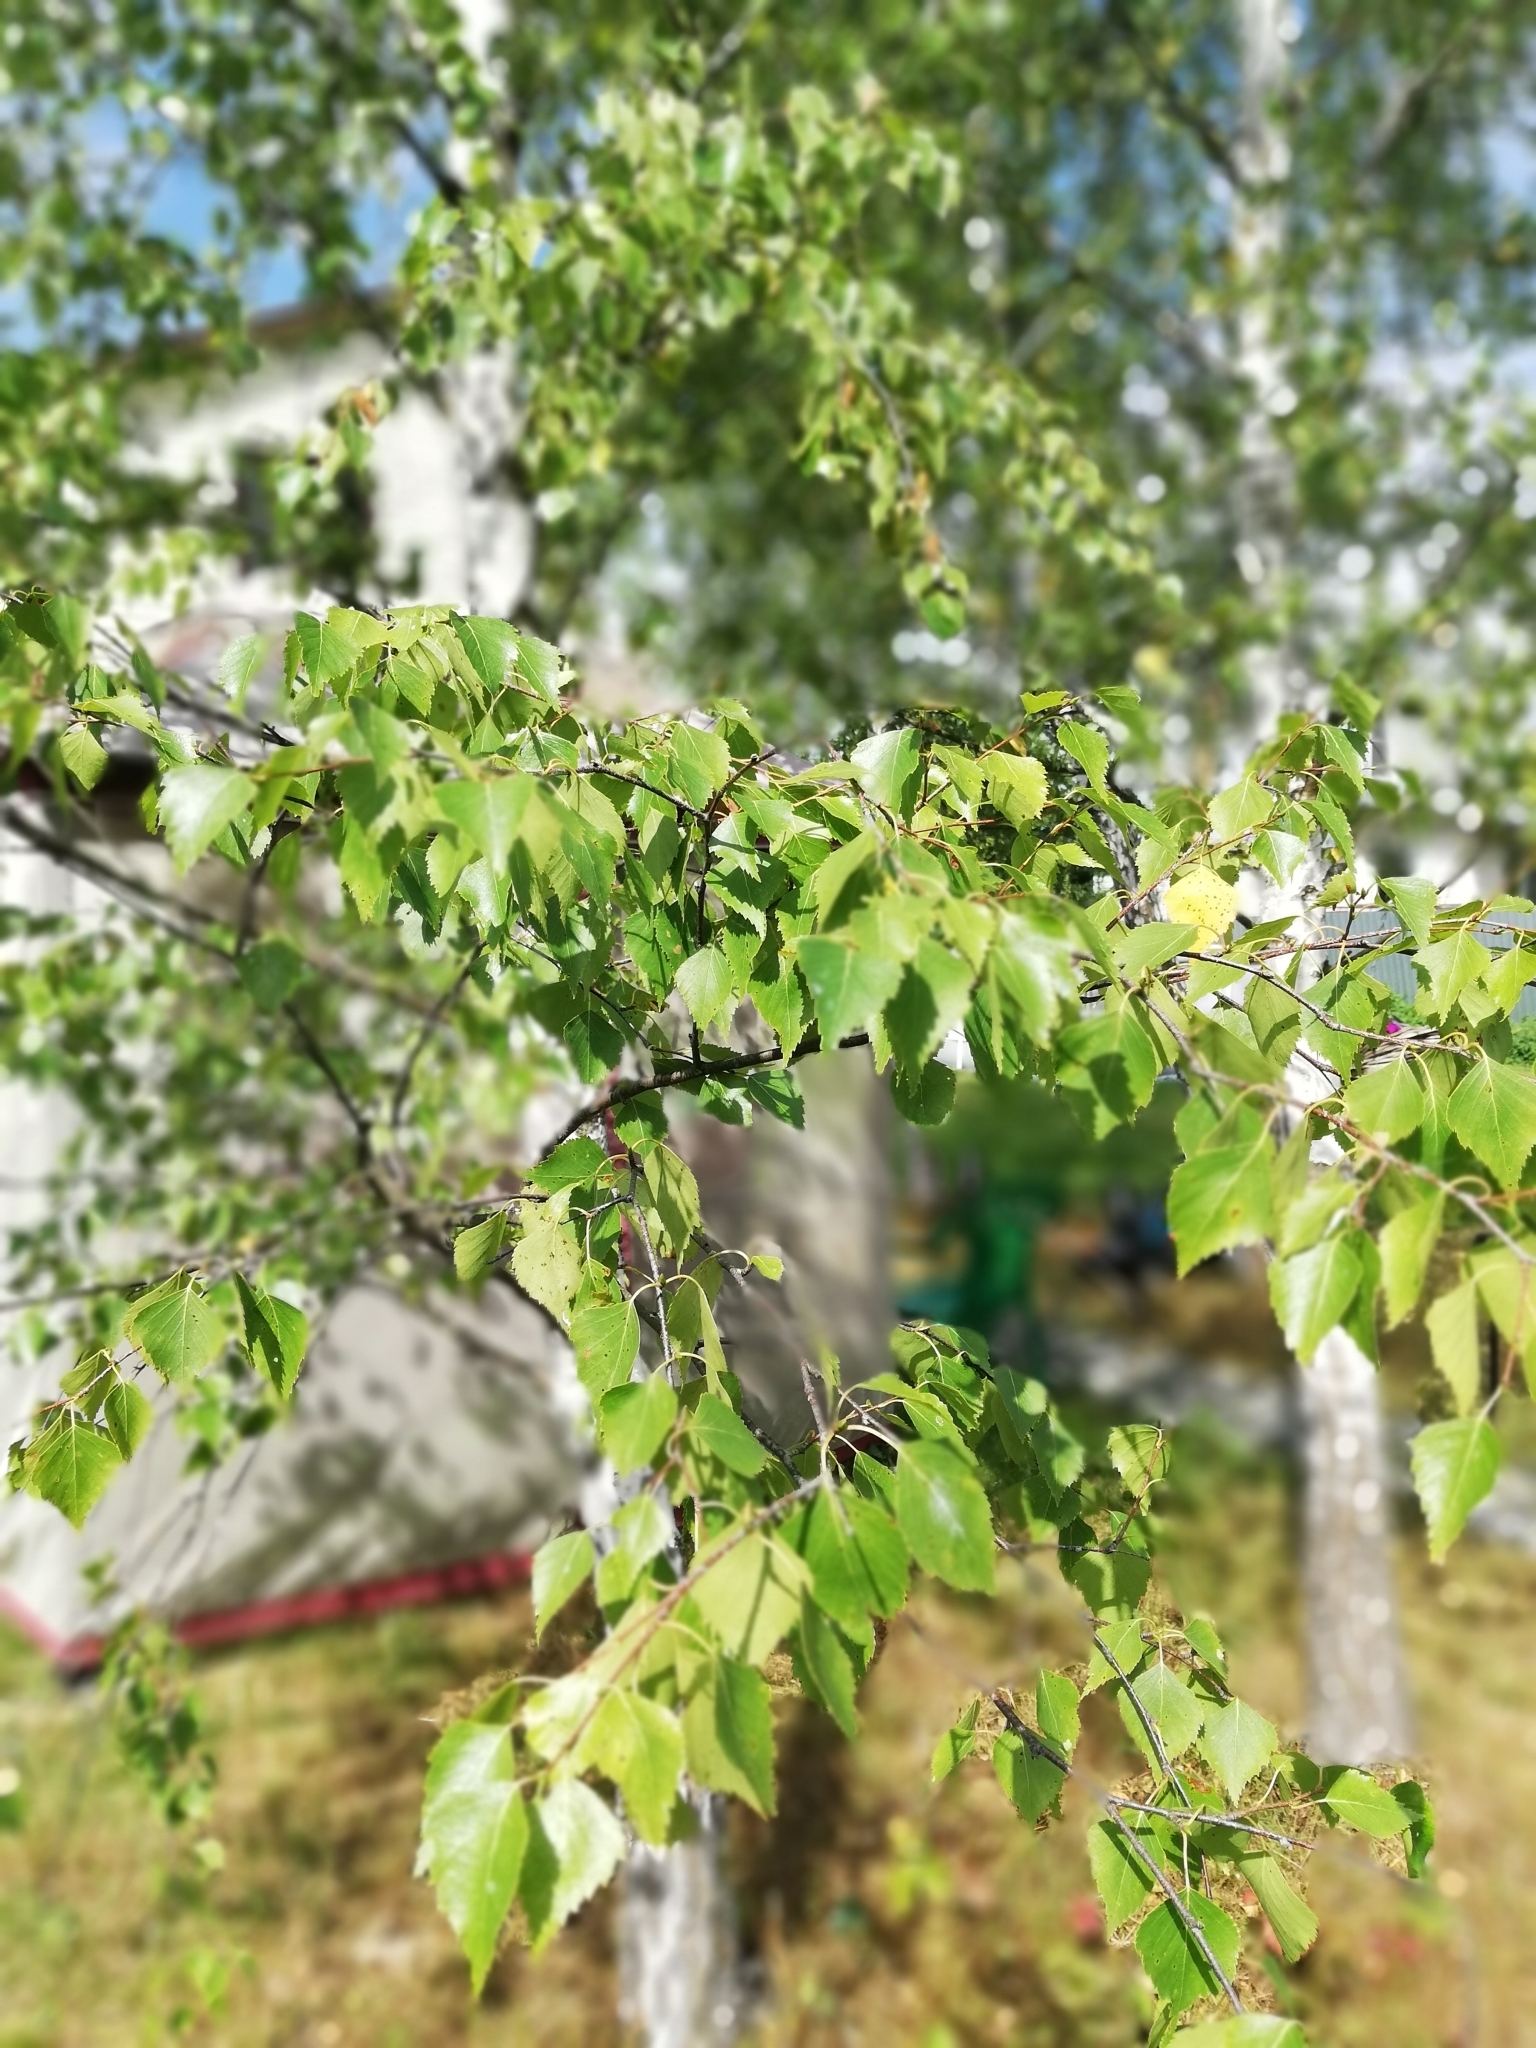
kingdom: Plantae
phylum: Tracheophyta
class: Magnoliopsida
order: Fagales
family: Betulaceae
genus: Betula
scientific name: Betula pendula
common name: Silver birch
